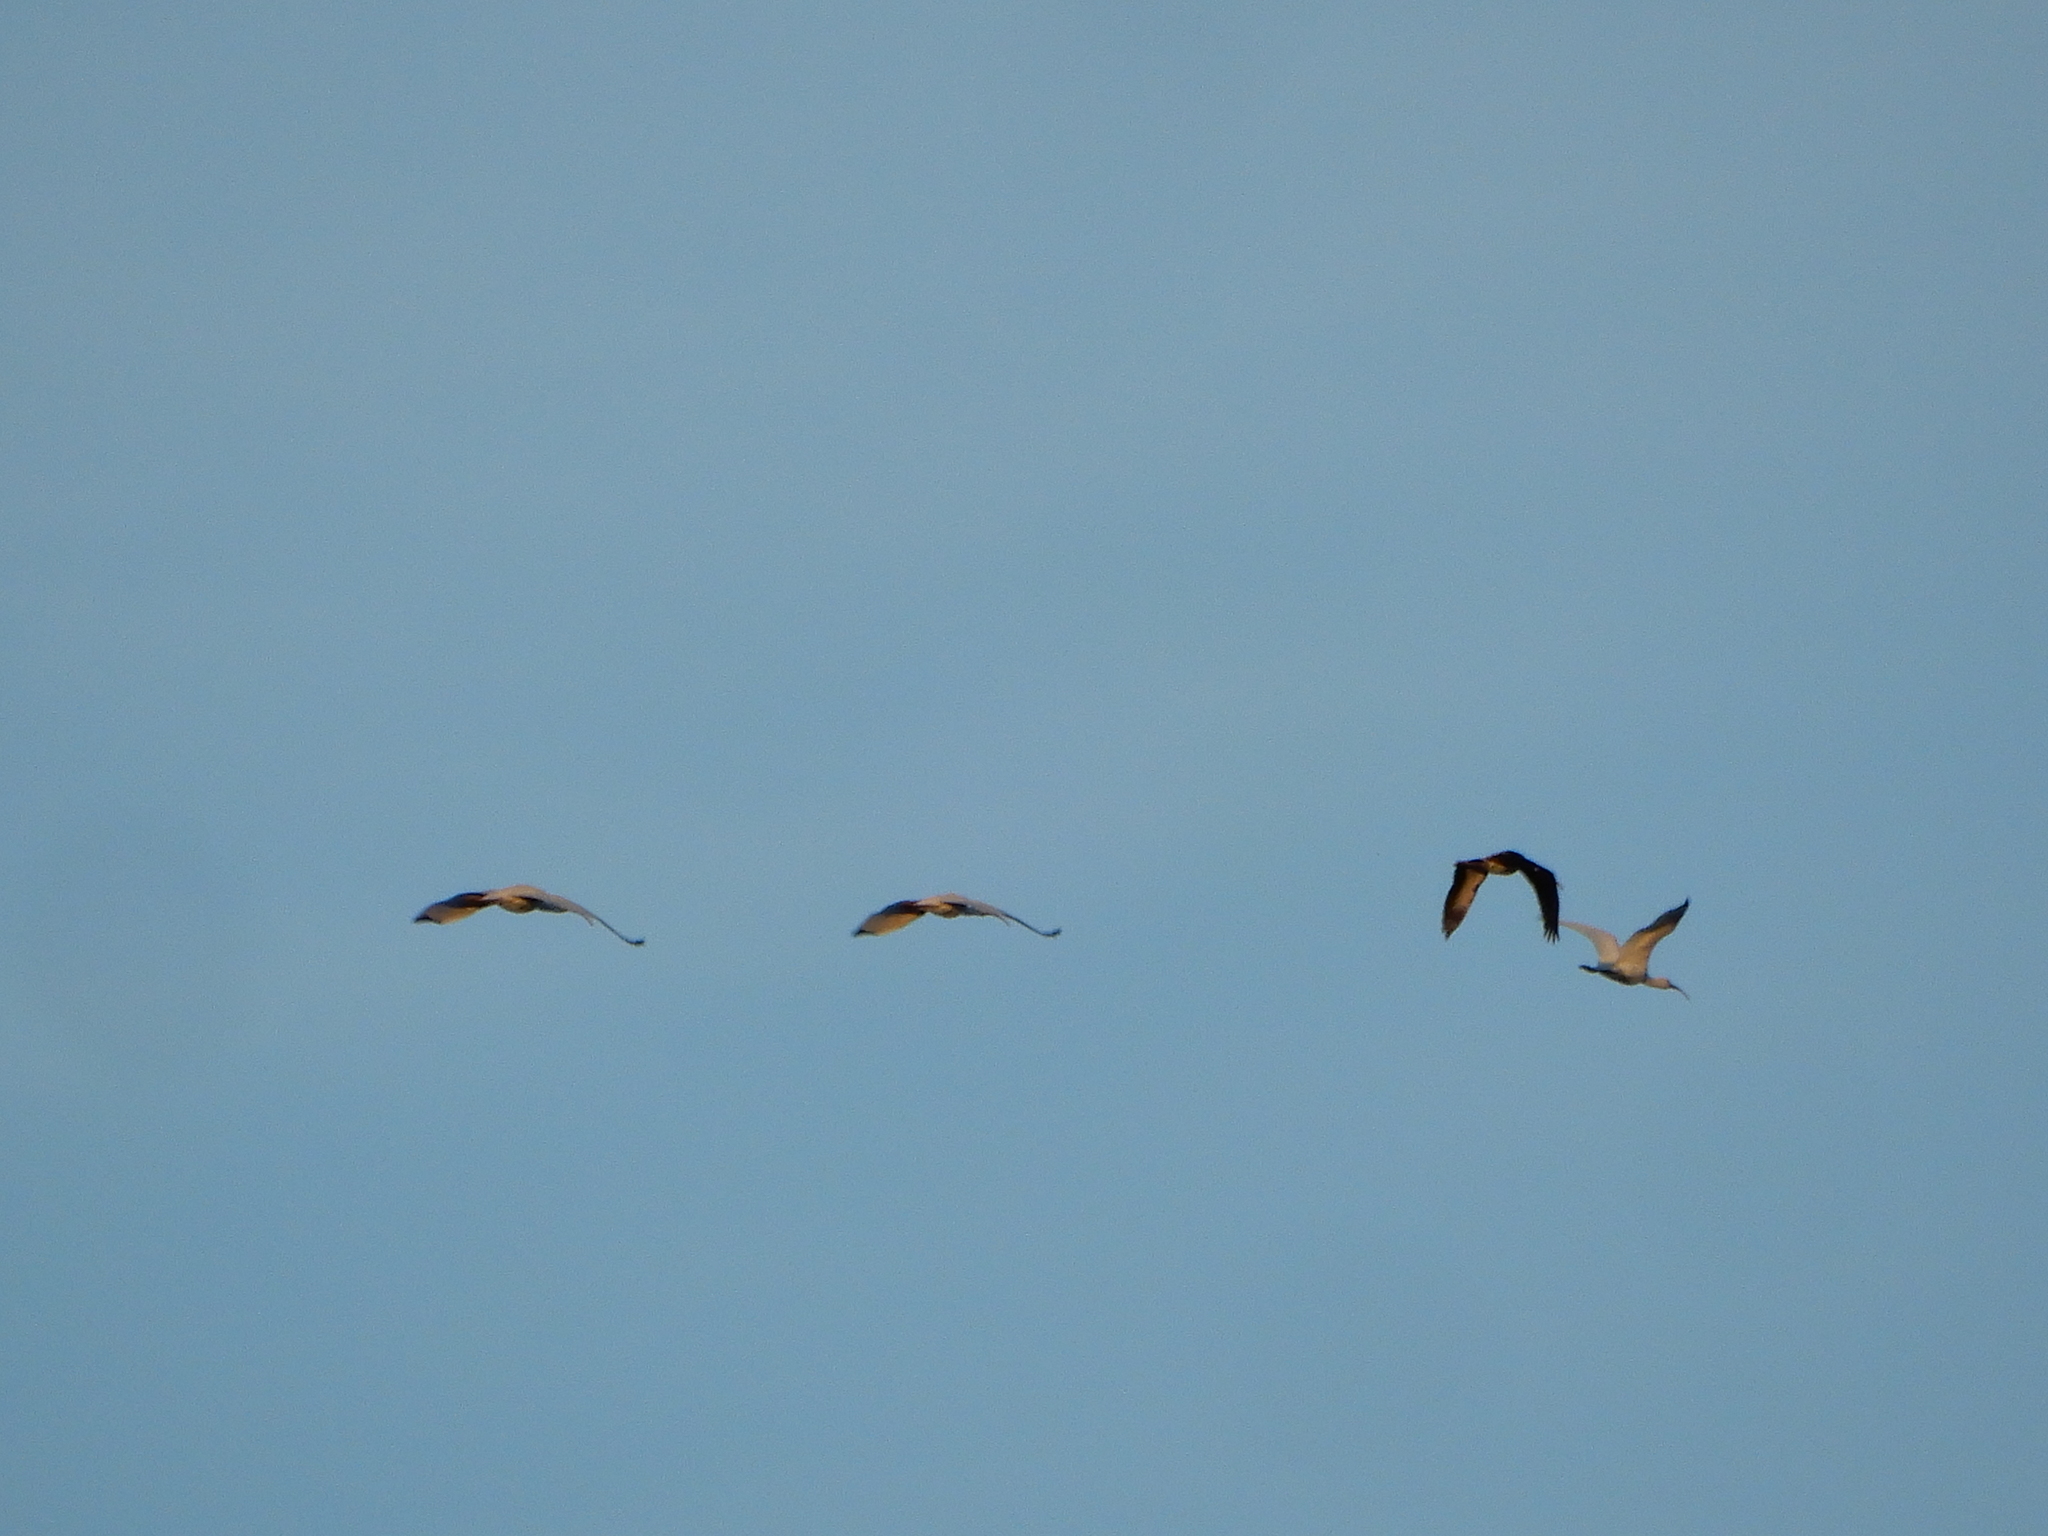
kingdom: Animalia
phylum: Chordata
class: Aves
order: Pelecaniformes
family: Threskiornithidae
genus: Eudocimus
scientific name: Eudocimus albus
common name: White ibis
